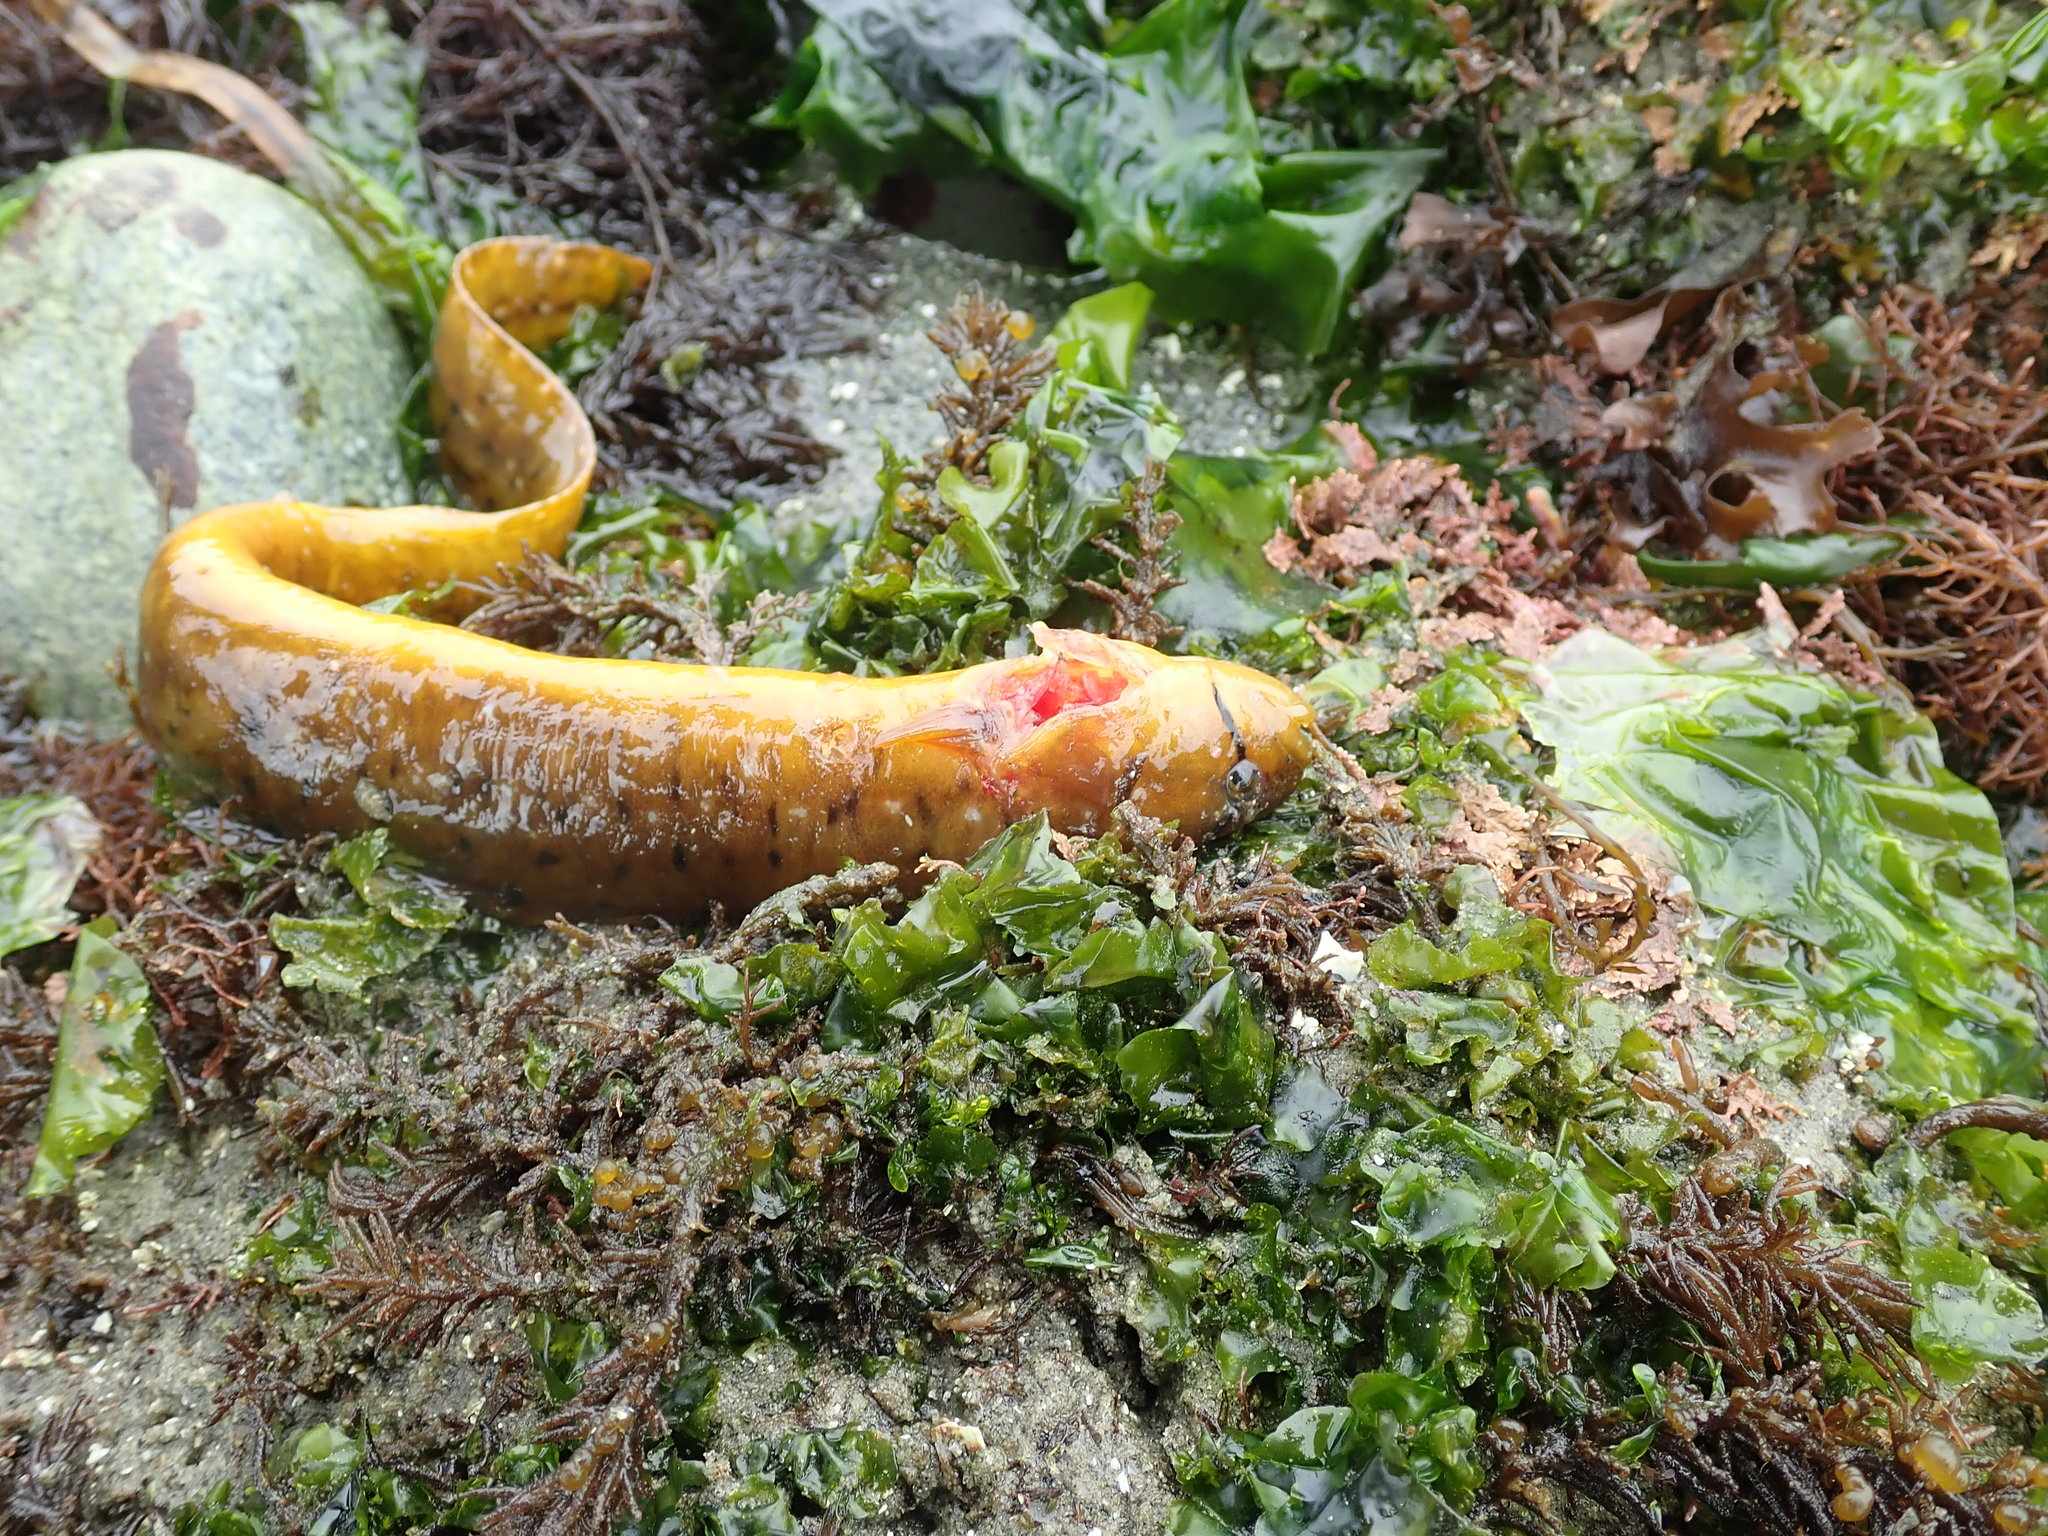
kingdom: Animalia
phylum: Chordata
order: Perciformes
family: Pholidae
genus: Apodichthys
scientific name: Apodichthys flavidus
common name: Penpoint gunnel
